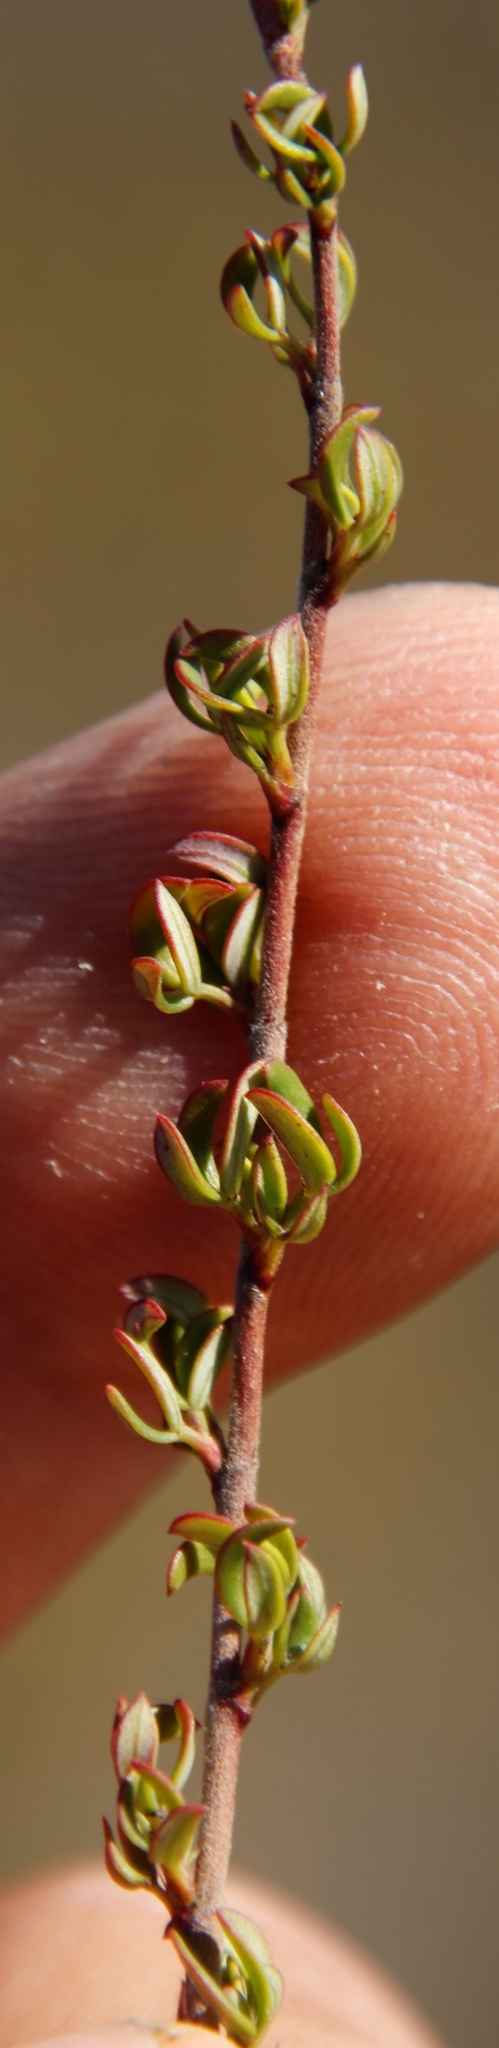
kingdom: Plantae
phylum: Tracheophyta
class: Magnoliopsida
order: Rosales
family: Rosaceae
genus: Cliffortia
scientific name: Cliffortia falcata
